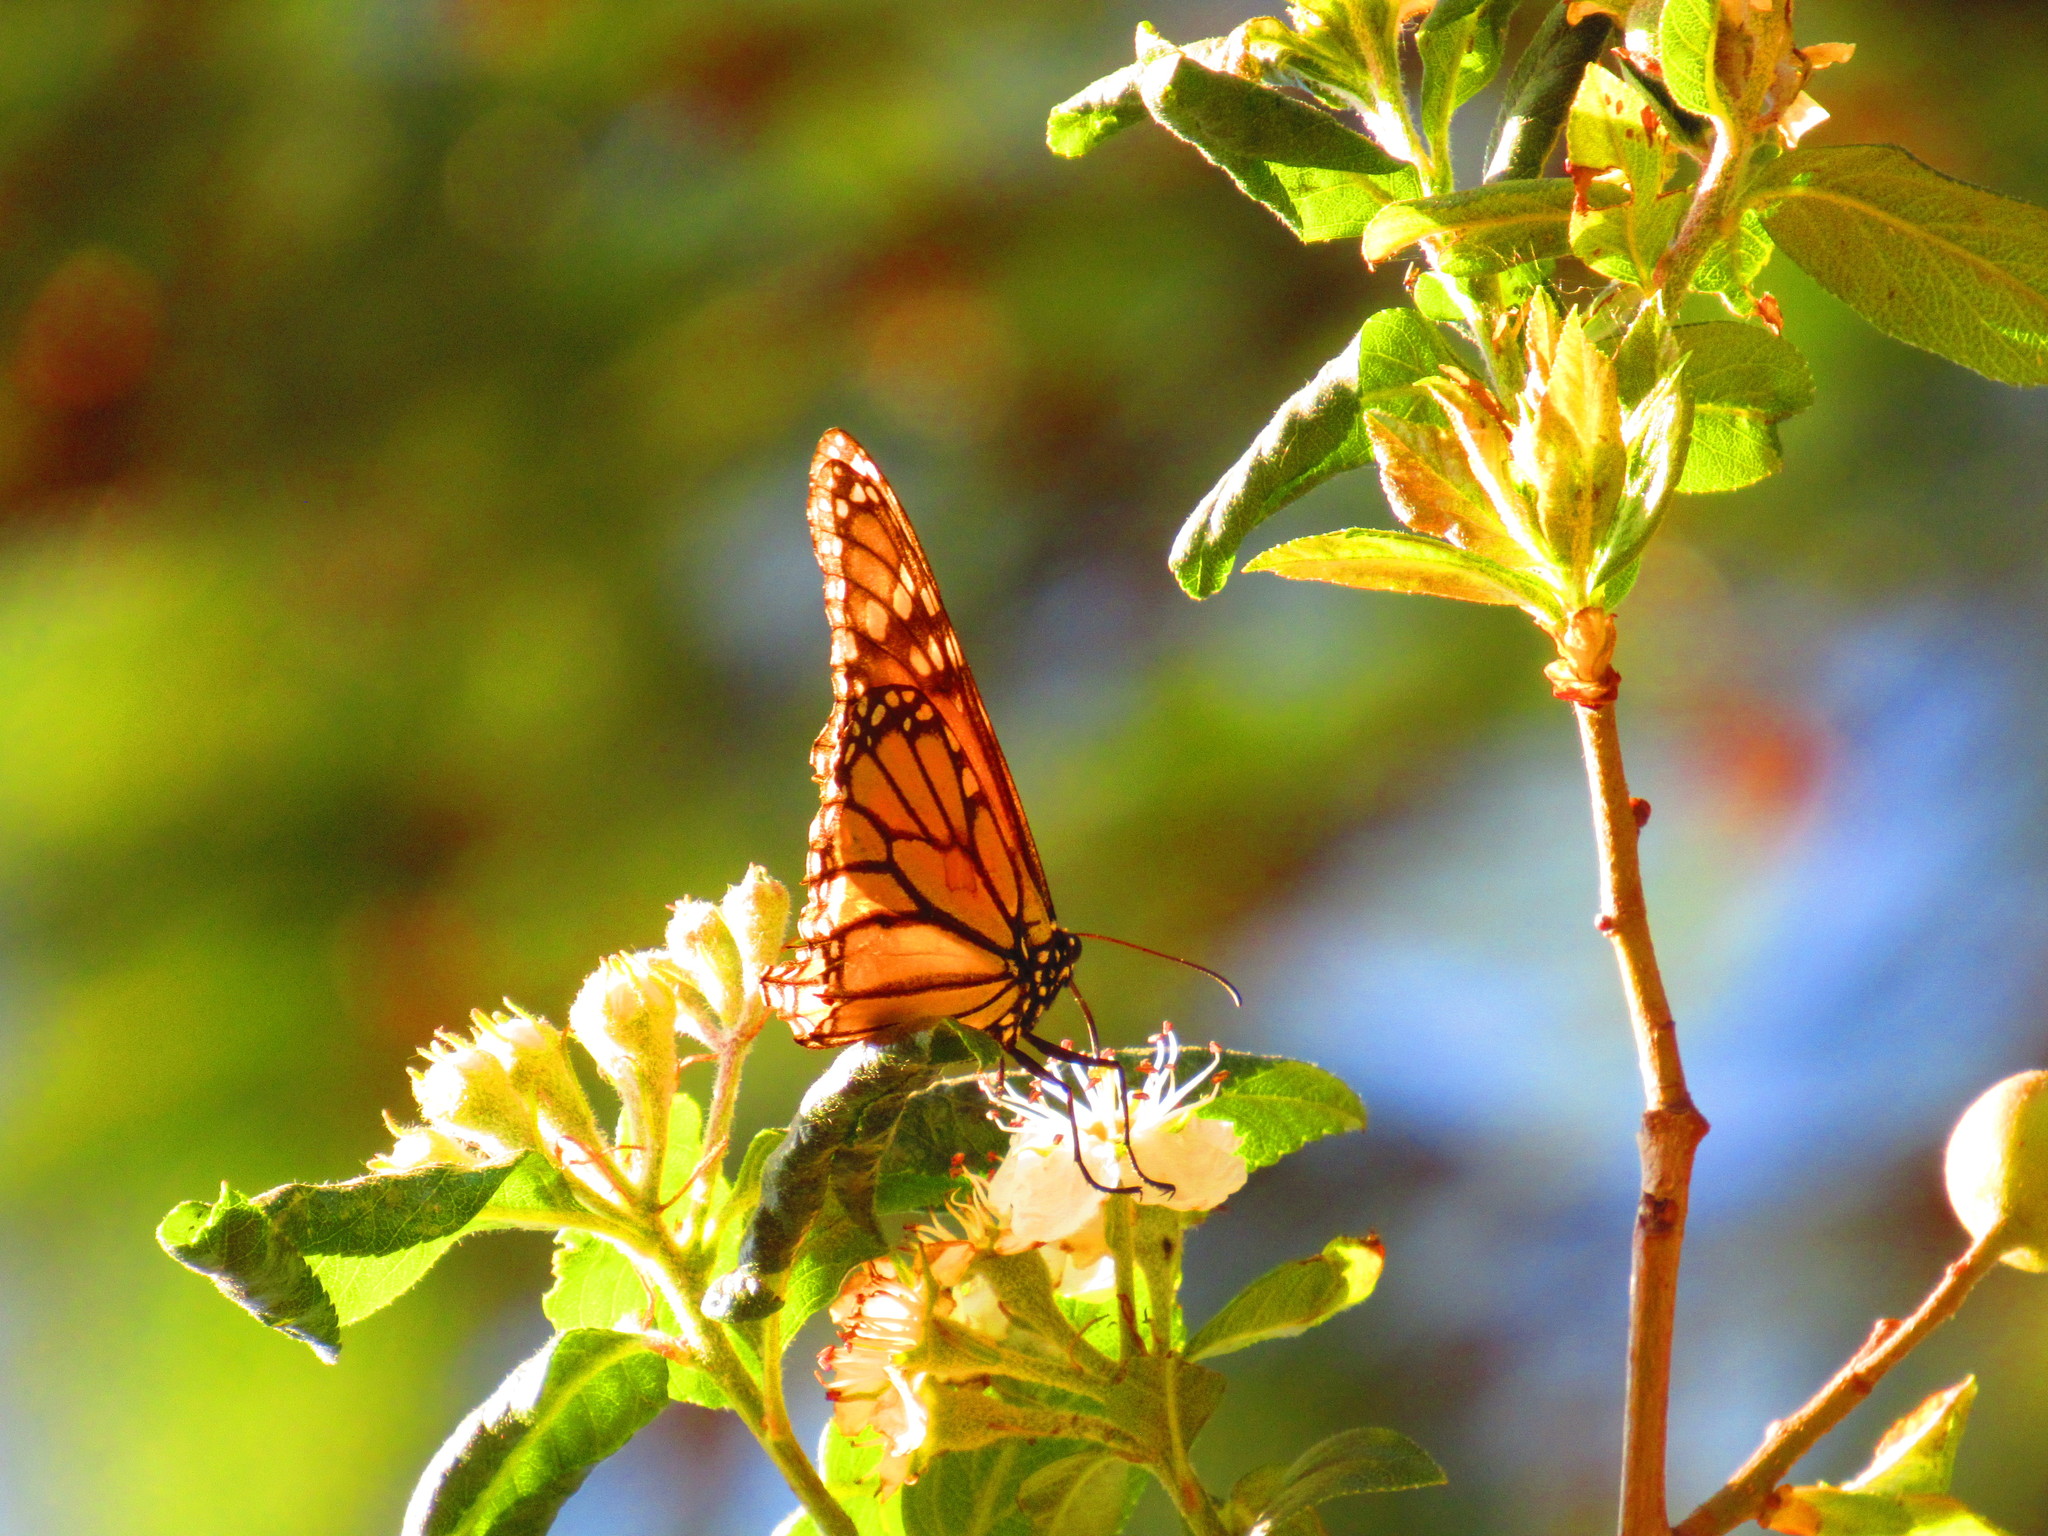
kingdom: Animalia
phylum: Arthropoda
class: Insecta
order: Lepidoptera
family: Nymphalidae
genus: Danaus
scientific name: Danaus plexippus
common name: Monarch
